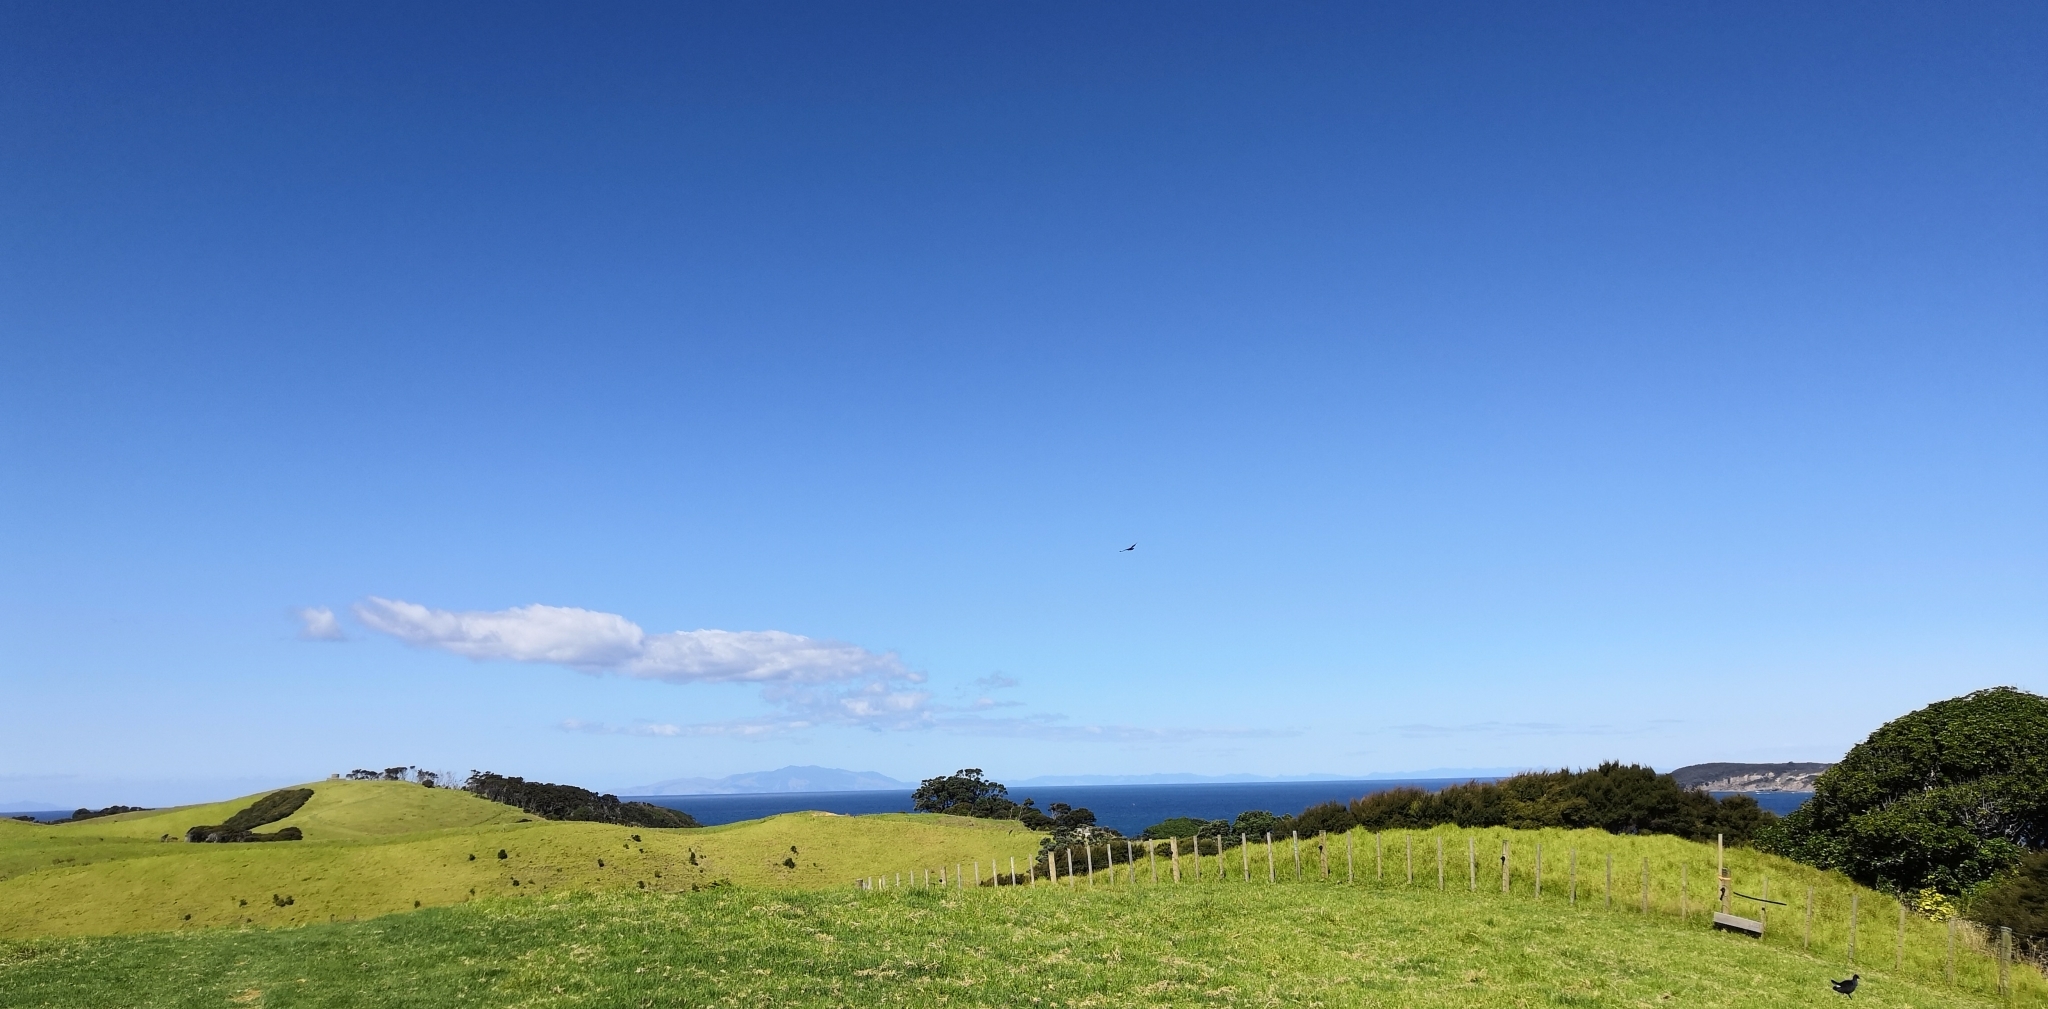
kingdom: Animalia
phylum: Chordata
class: Aves
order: Psittaciformes
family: Psittacidae
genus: Nestor
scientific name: Nestor meridionalis
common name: New zealand kaka
